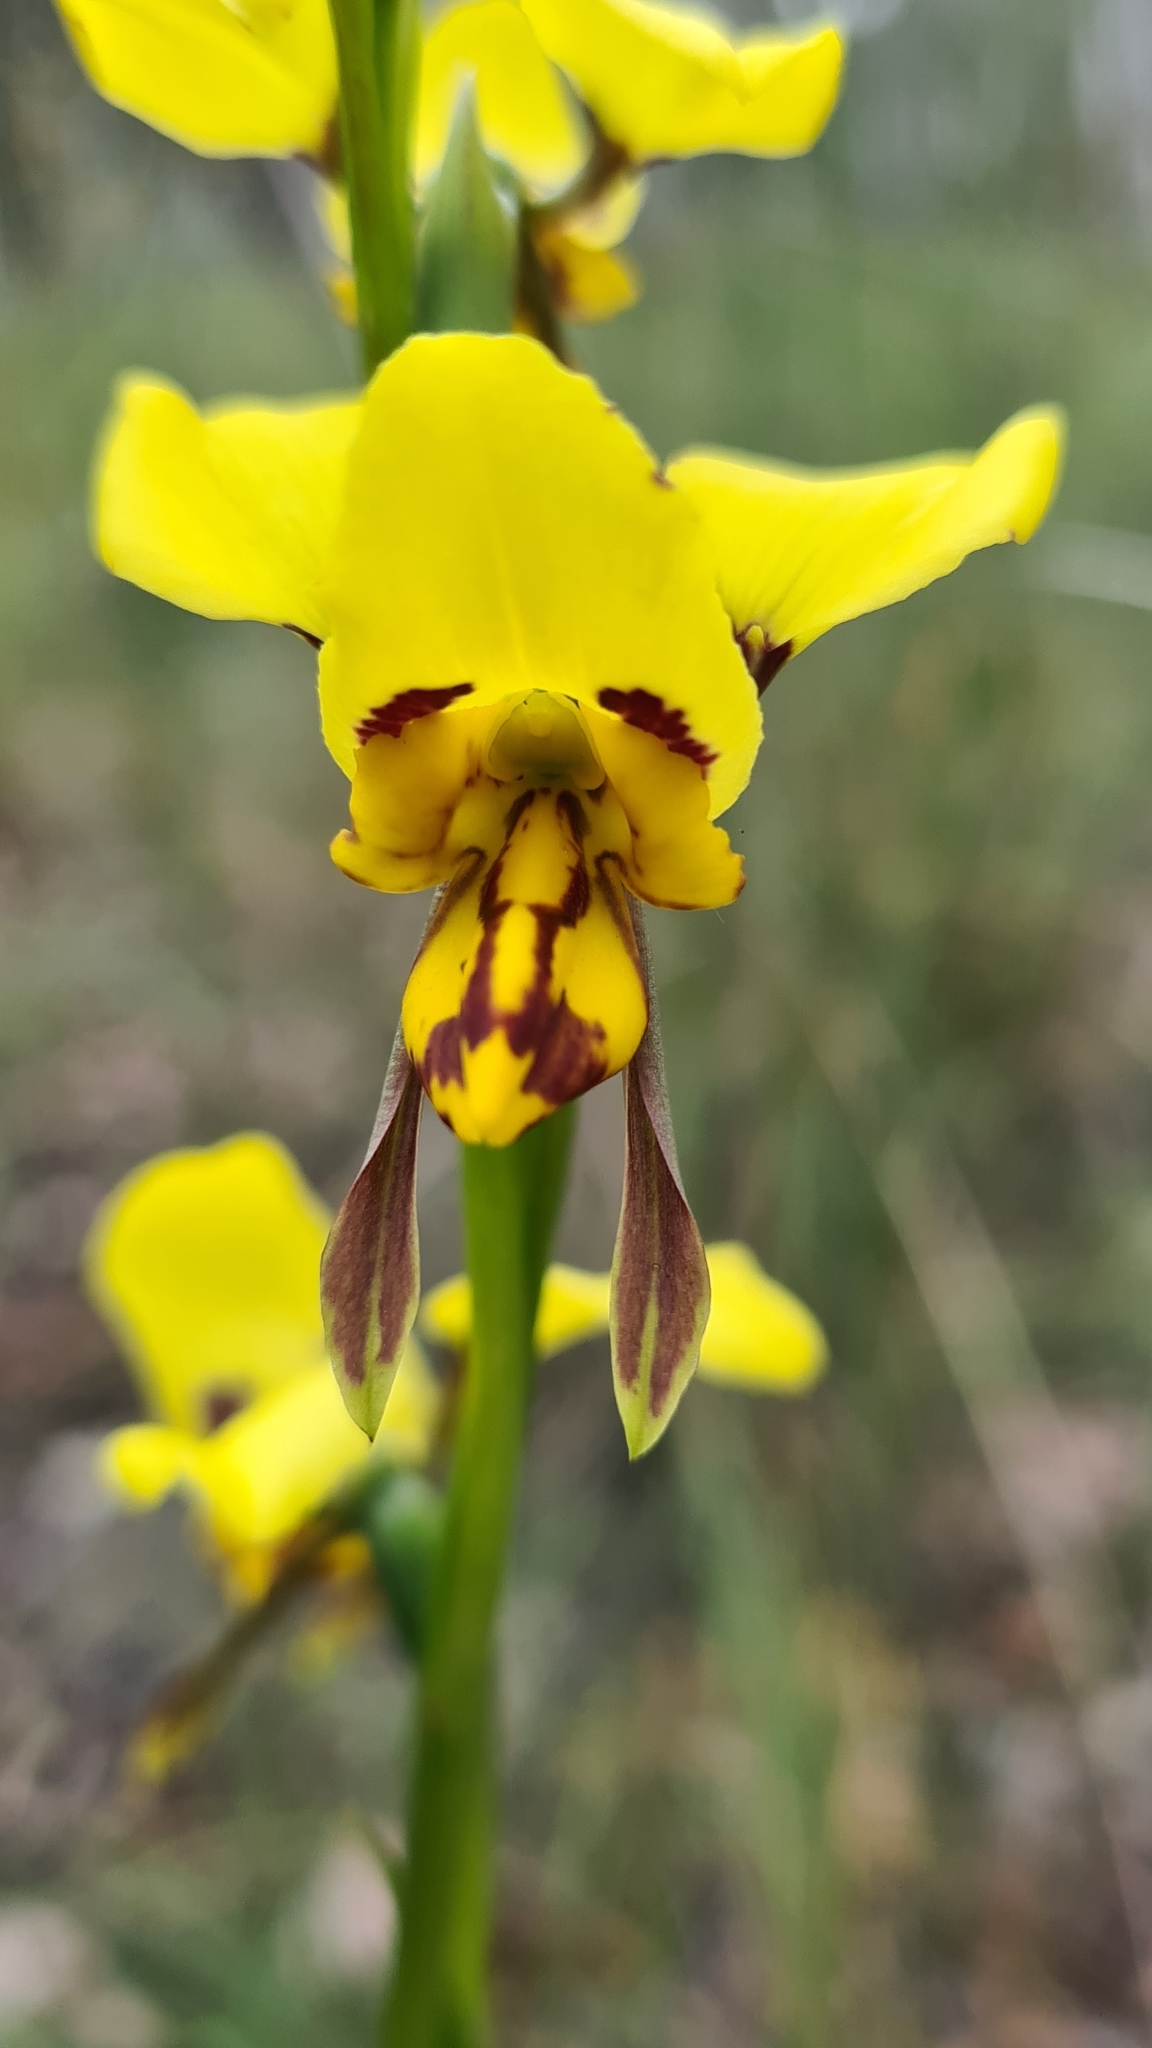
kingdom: Plantae
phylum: Tracheophyta
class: Liliopsida
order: Asparagales
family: Orchidaceae
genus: Diuris
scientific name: Diuris sulphurea
